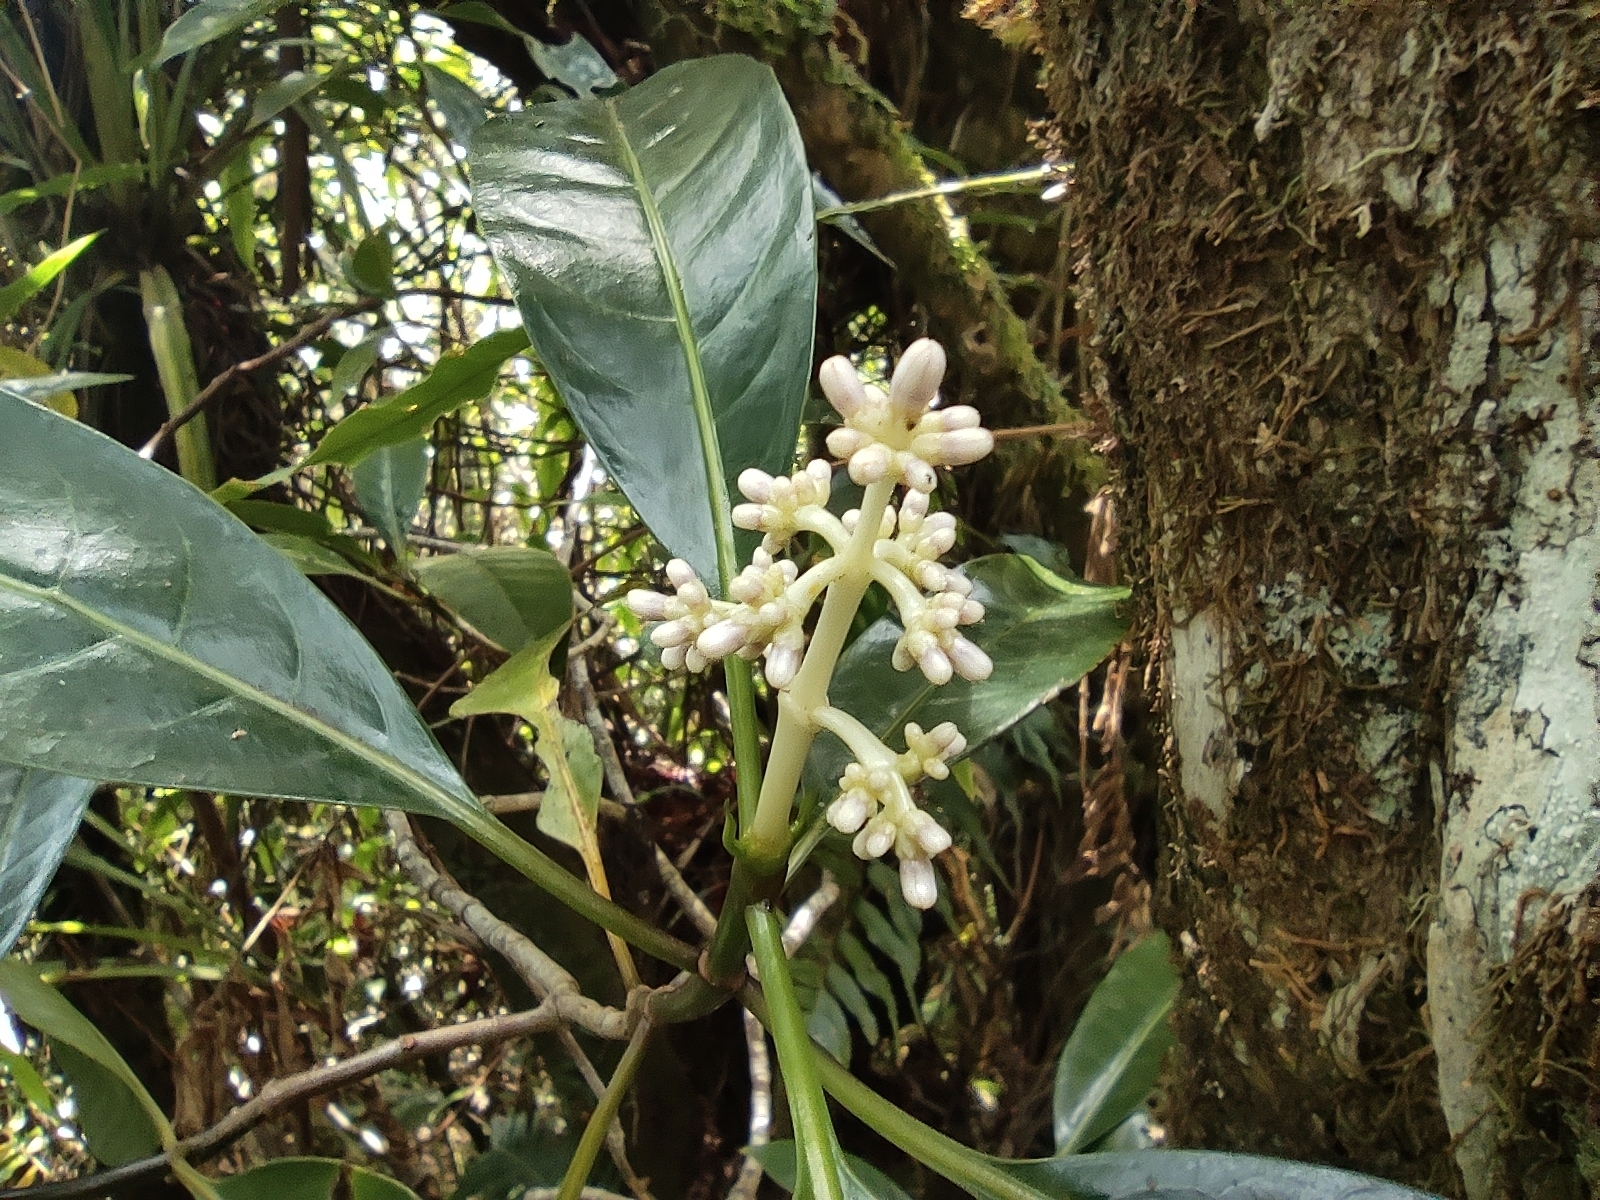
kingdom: Plantae
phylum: Tracheophyta
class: Magnoliopsida
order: Gentianales
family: Rubiaceae
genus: Chassalia
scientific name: Chassalia corallioides
